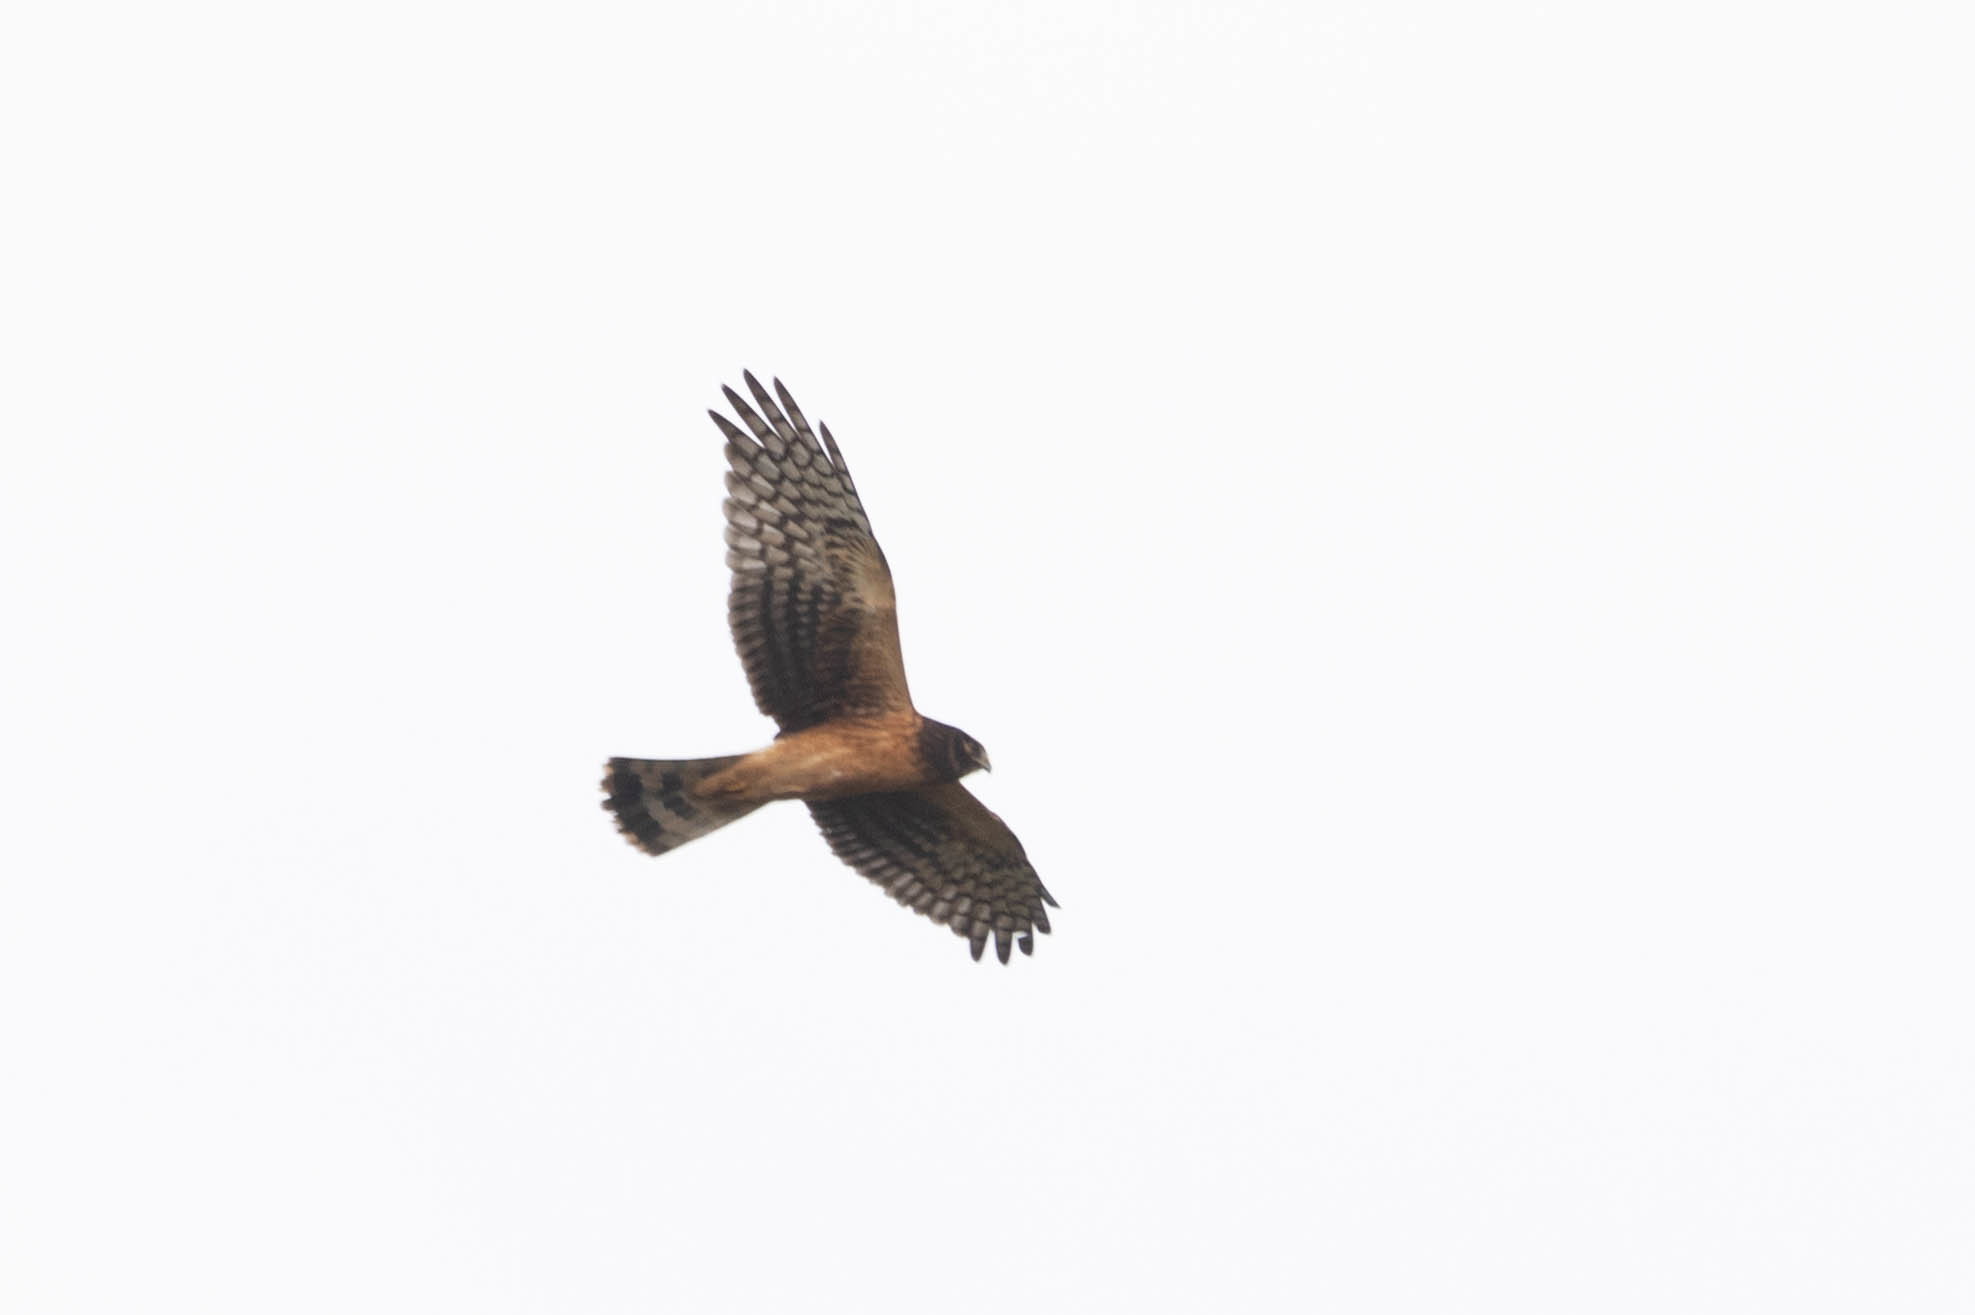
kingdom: Animalia
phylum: Chordata
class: Aves
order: Accipitriformes
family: Accipitridae
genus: Circus
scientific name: Circus cyaneus
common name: Hen harrier
